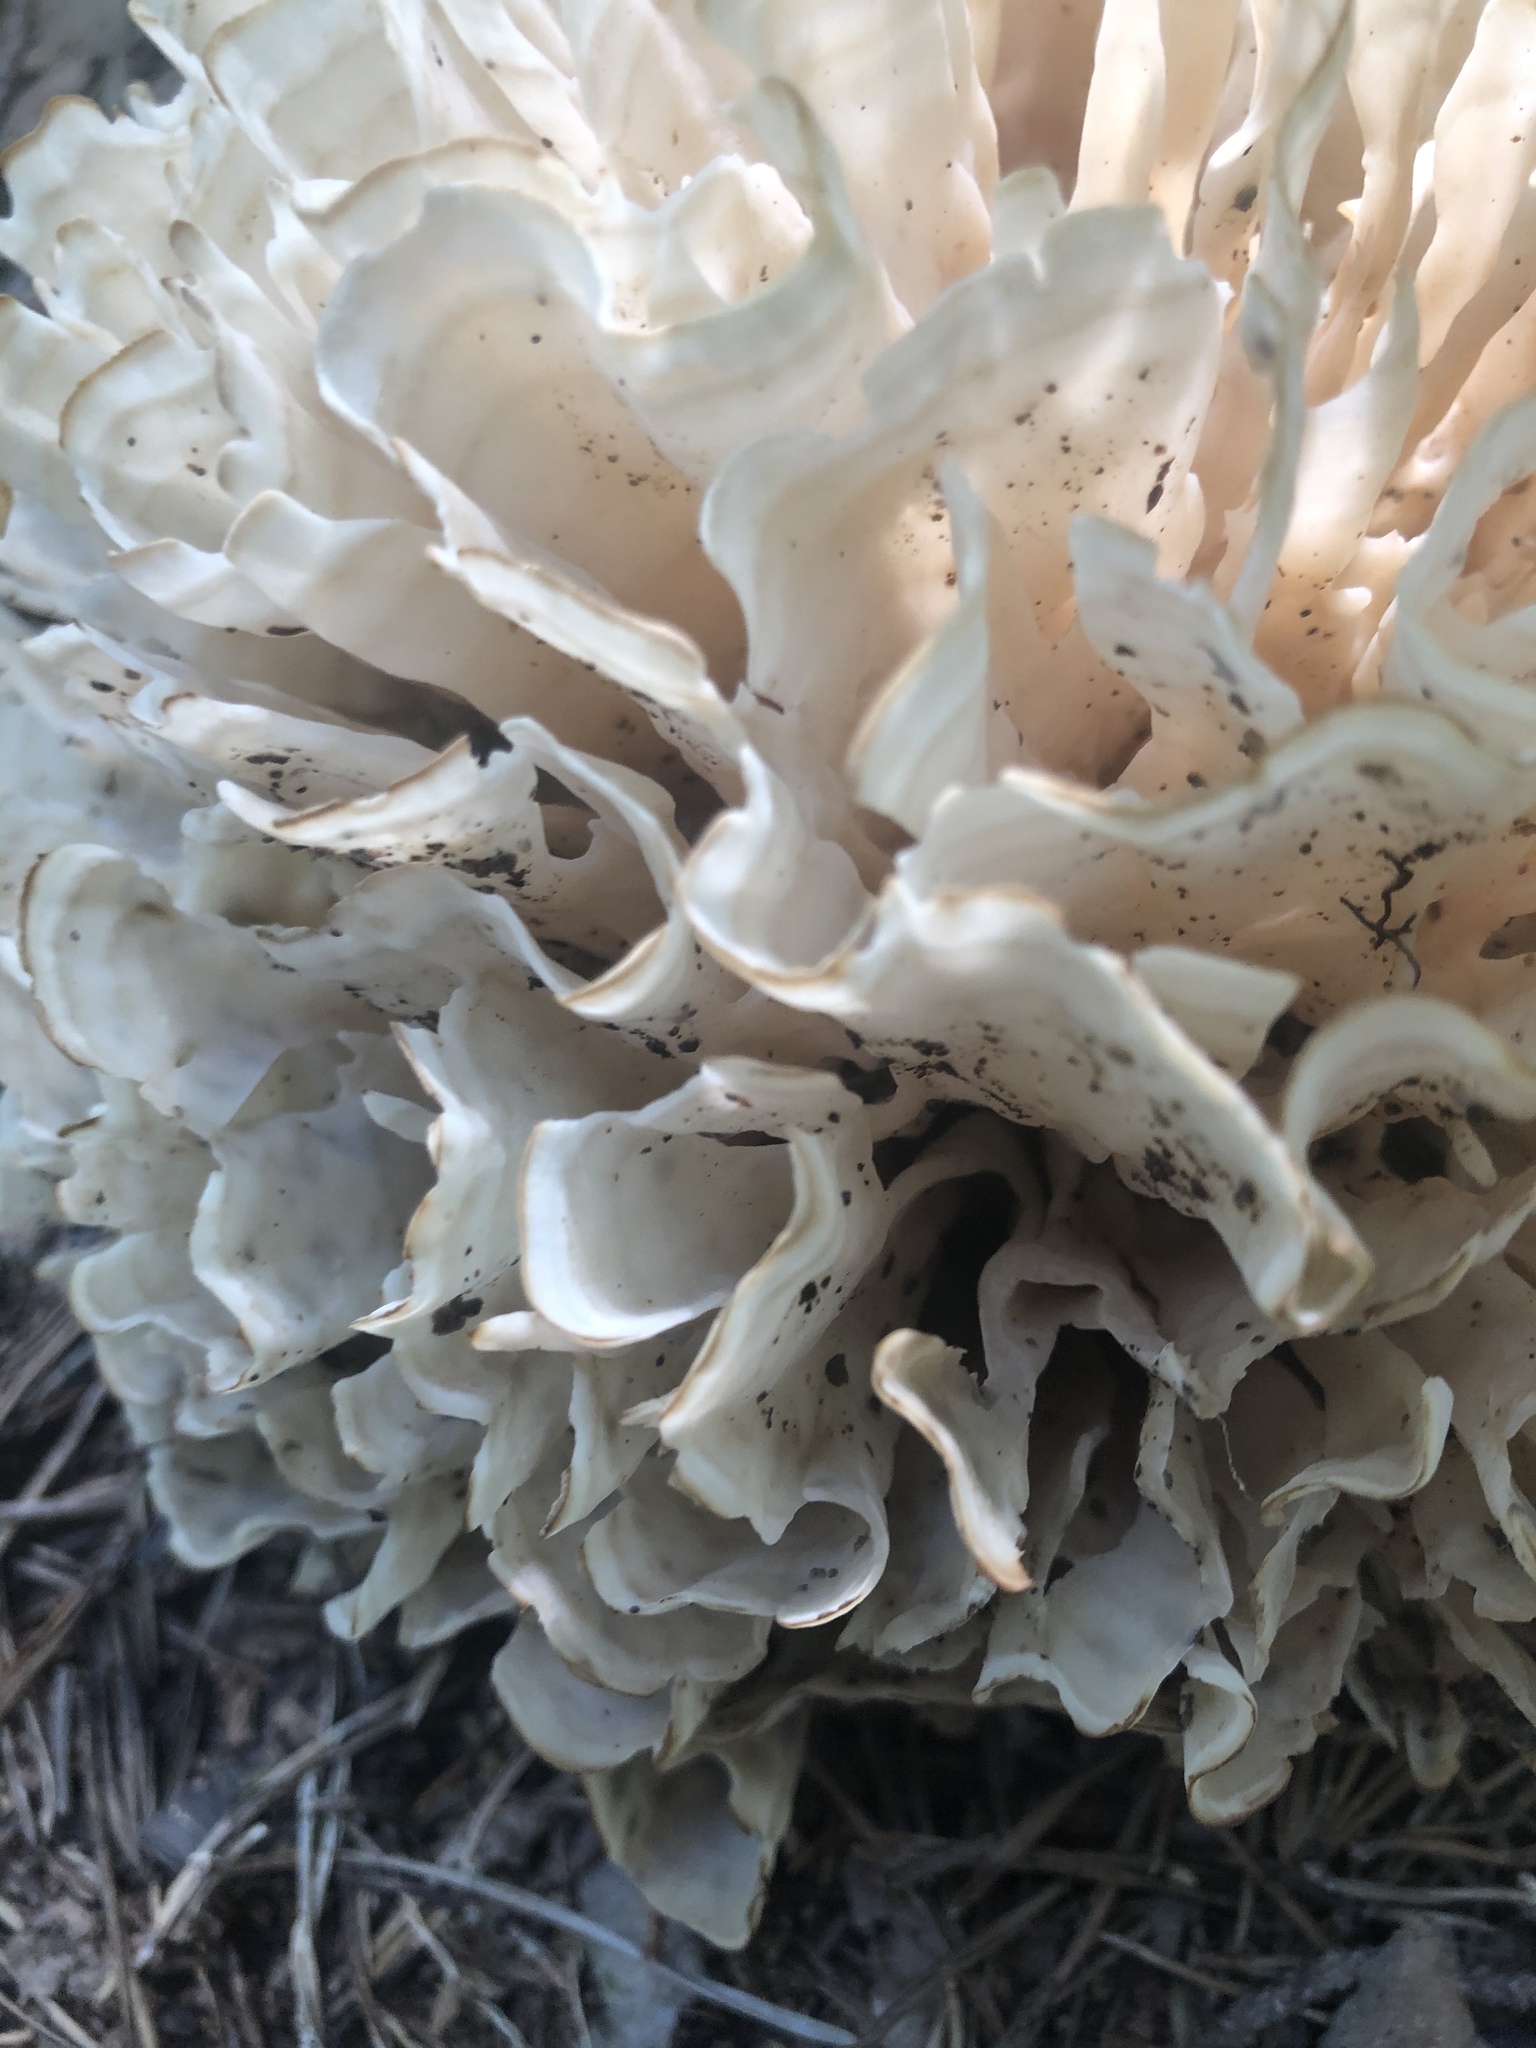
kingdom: Fungi
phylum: Basidiomycota
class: Agaricomycetes
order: Polyporales
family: Sparassidaceae
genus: Sparassis
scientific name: Sparassis spathulata
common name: Eastern cauliflower mushroom
